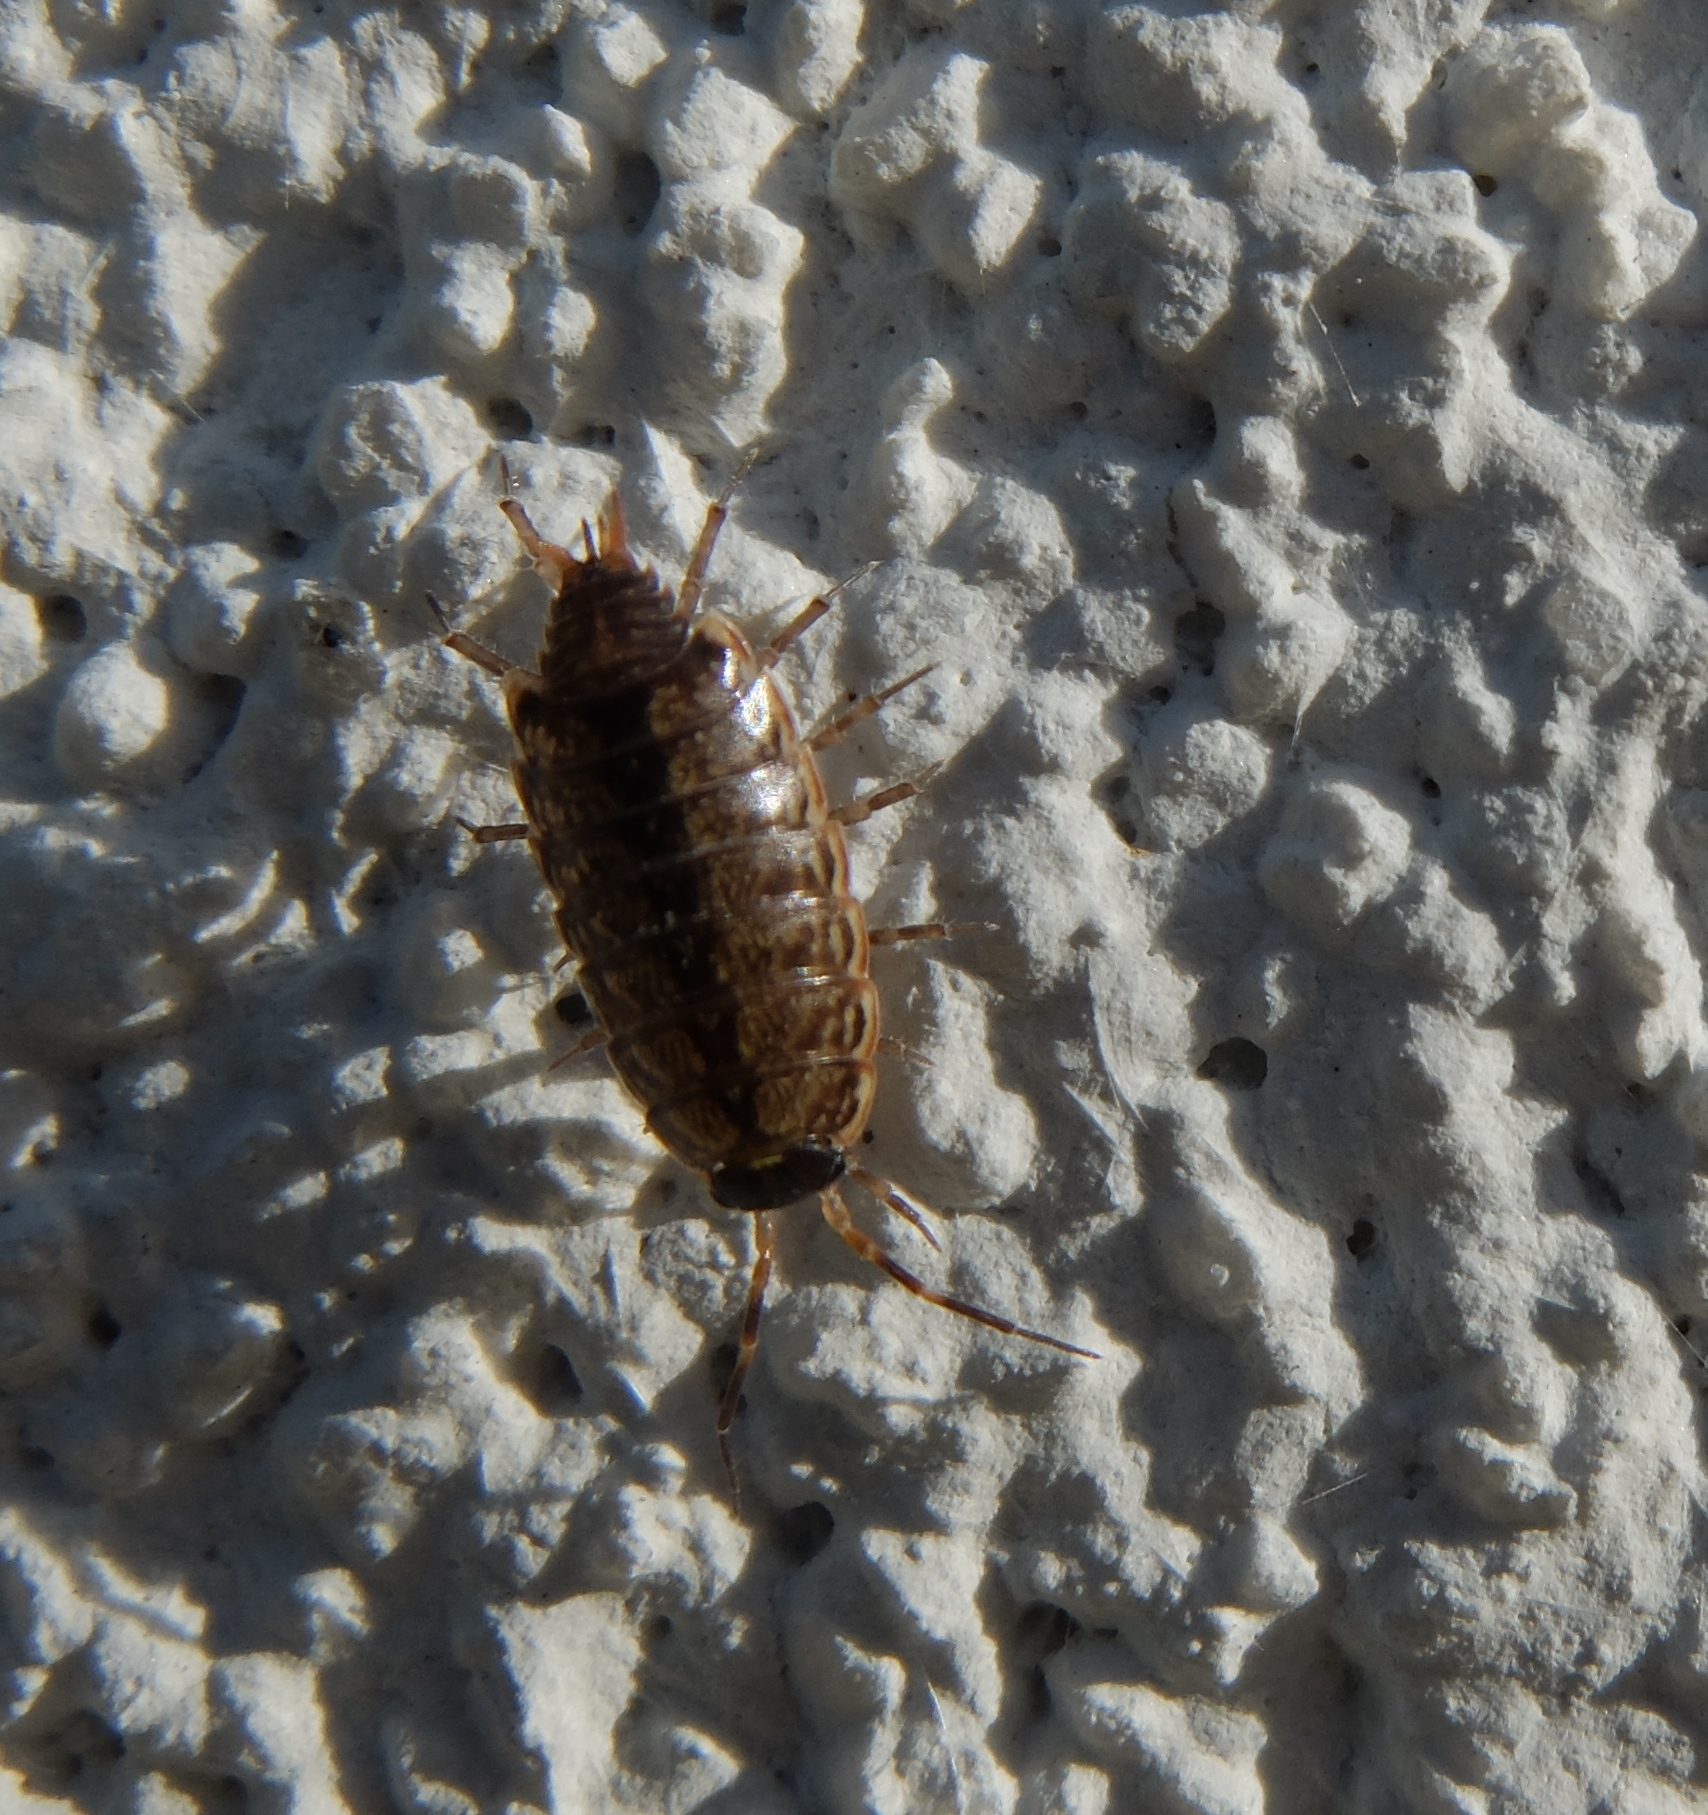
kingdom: Animalia
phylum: Arthropoda
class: Malacostraca
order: Isopoda
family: Philosciidae
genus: Philoscia
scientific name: Philoscia muscorum
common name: Common striped woodlouse
